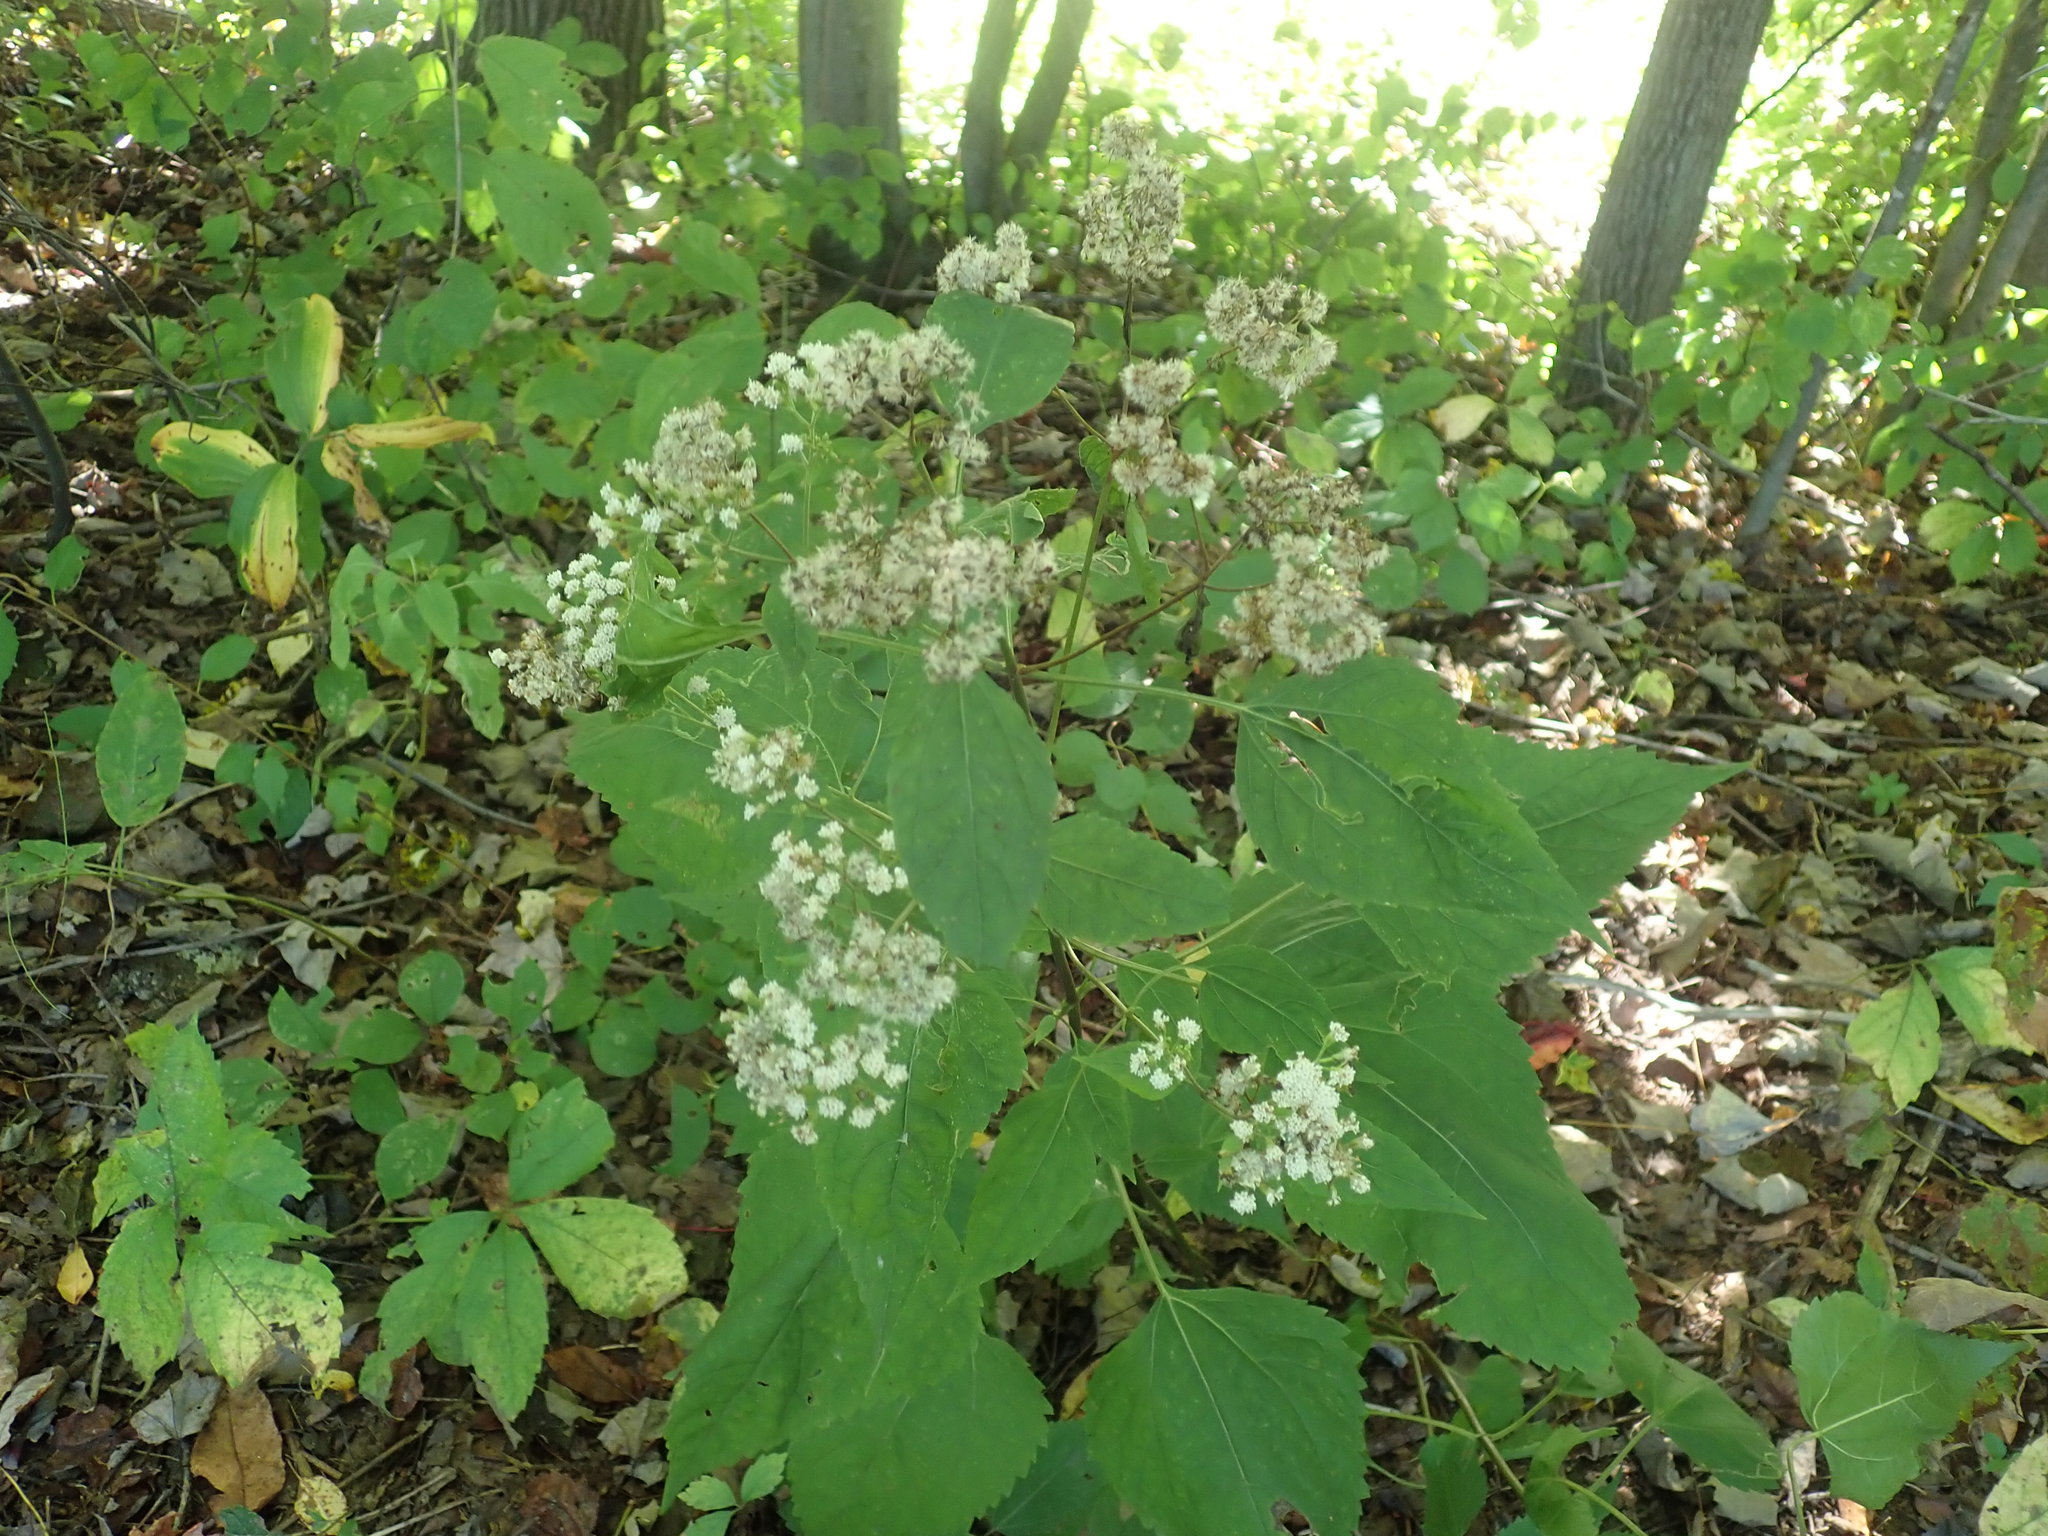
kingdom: Plantae
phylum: Tracheophyta
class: Magnoliopsida
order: Asterales
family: Asteraceae
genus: Ageratina
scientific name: Ageratina altissima
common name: White snakeroot
